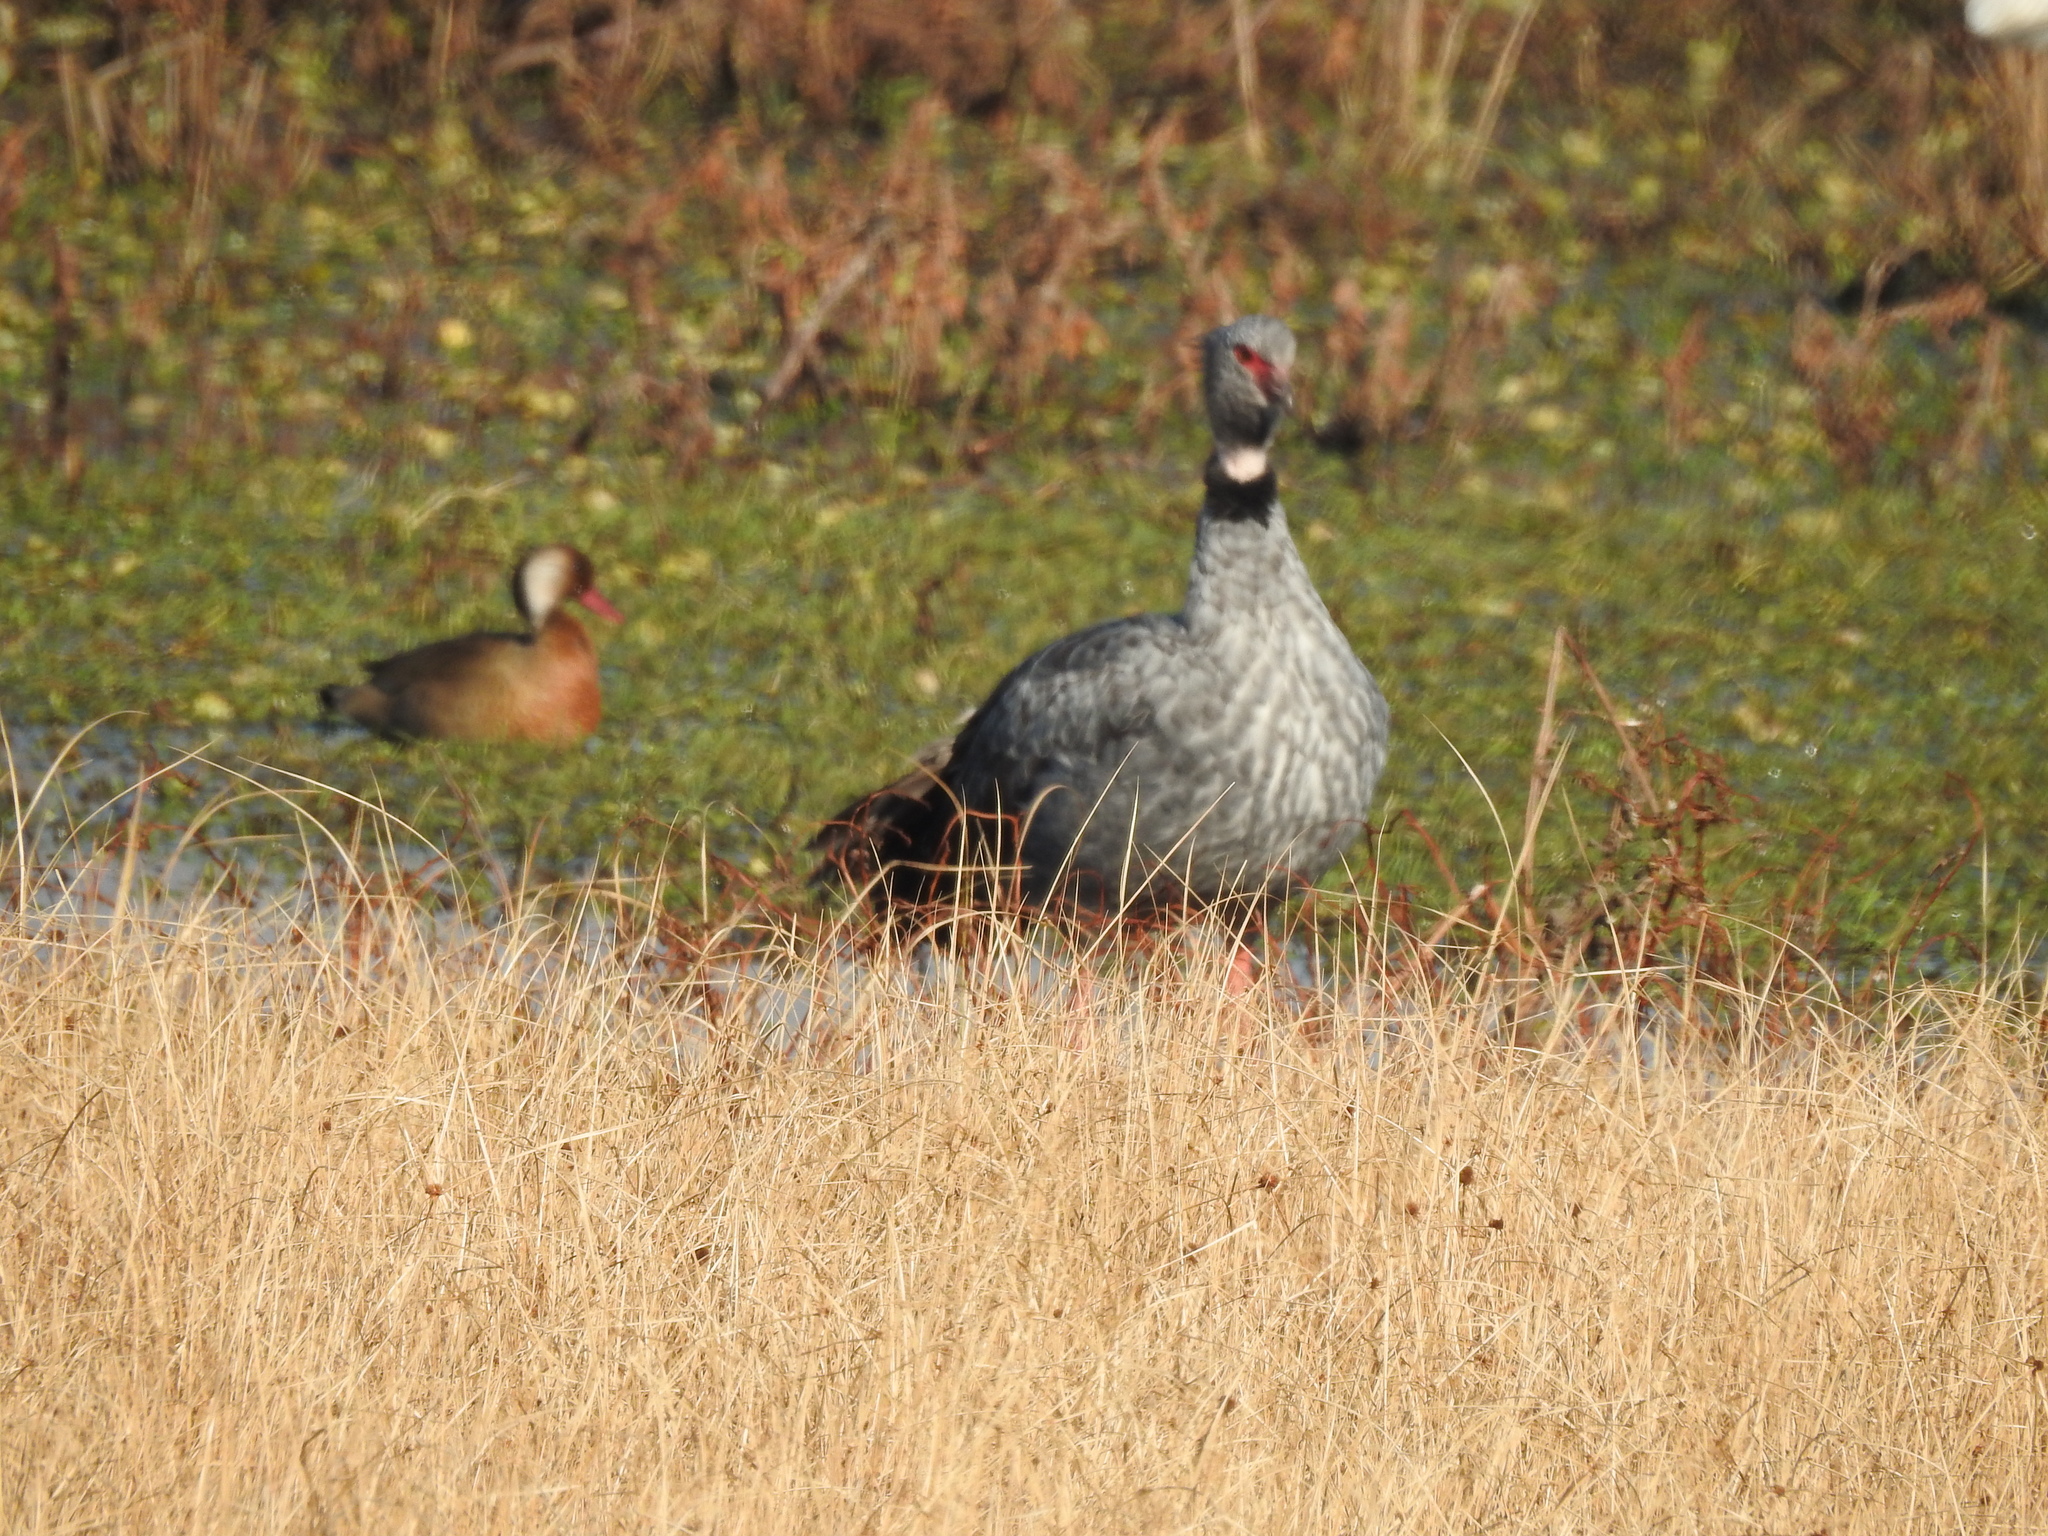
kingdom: Animalia
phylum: Chordata
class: Aves
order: Anseriformes
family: Anatidae
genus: Amazonetta
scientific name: Amazonetta brasiliensis
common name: Brazilian teal
